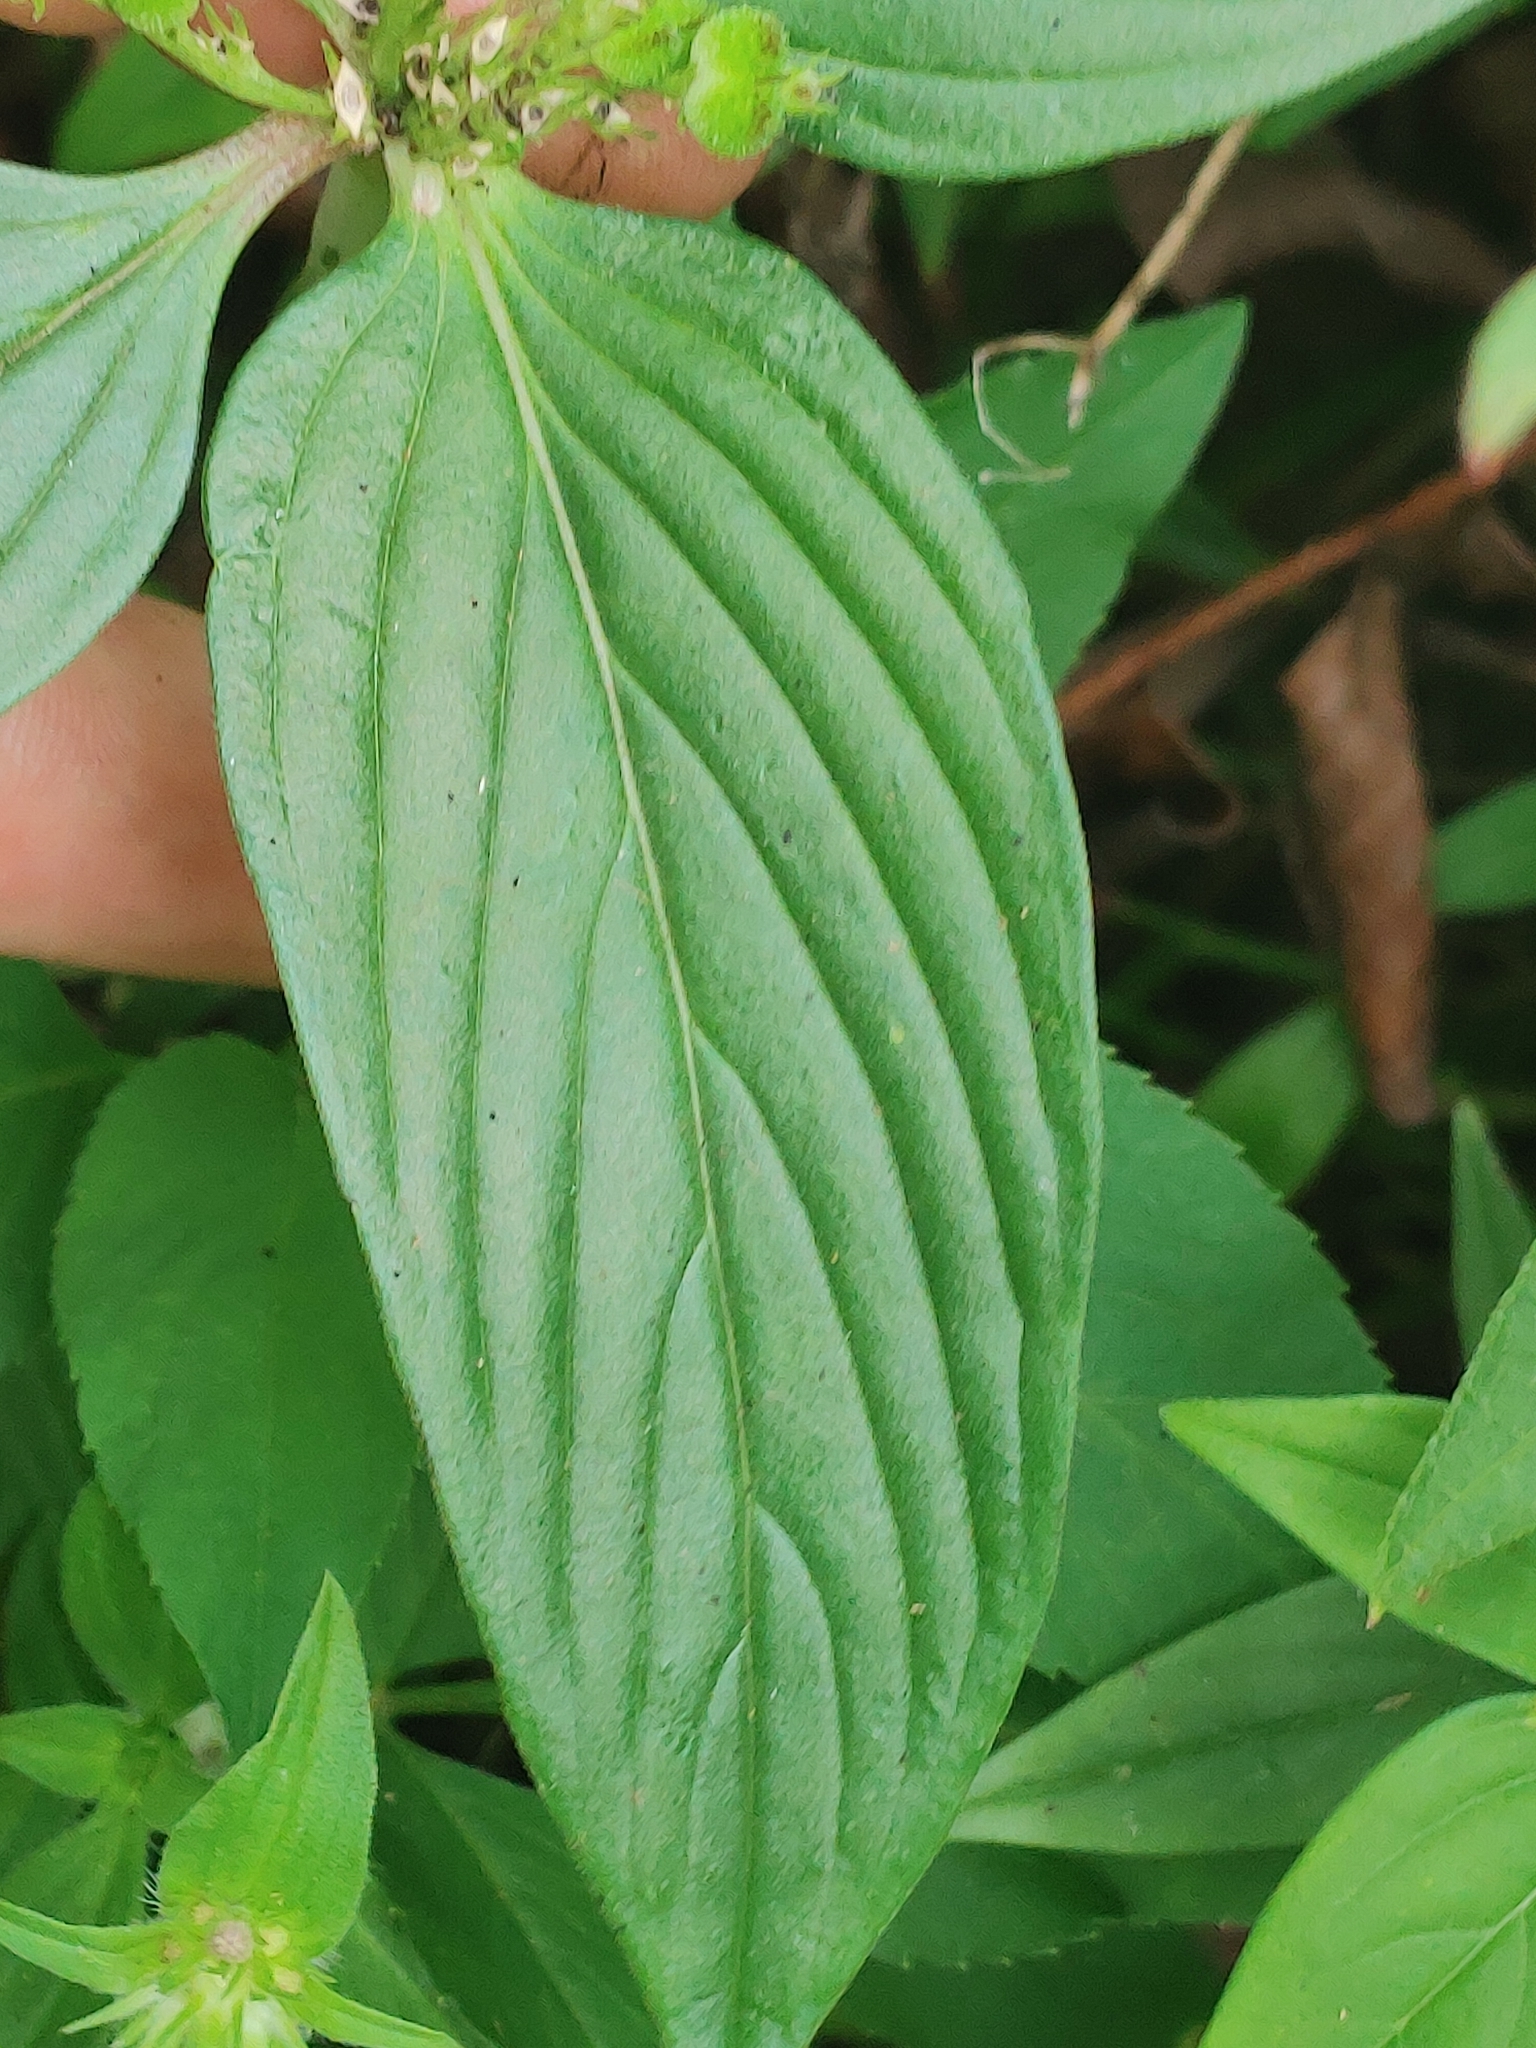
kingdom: Plantae
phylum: Tracheophyta
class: Magnoliopsida
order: Gentianales
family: Loganiaceae
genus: Spigelia
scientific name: Spigelia anthelmia
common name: West indian-pink
